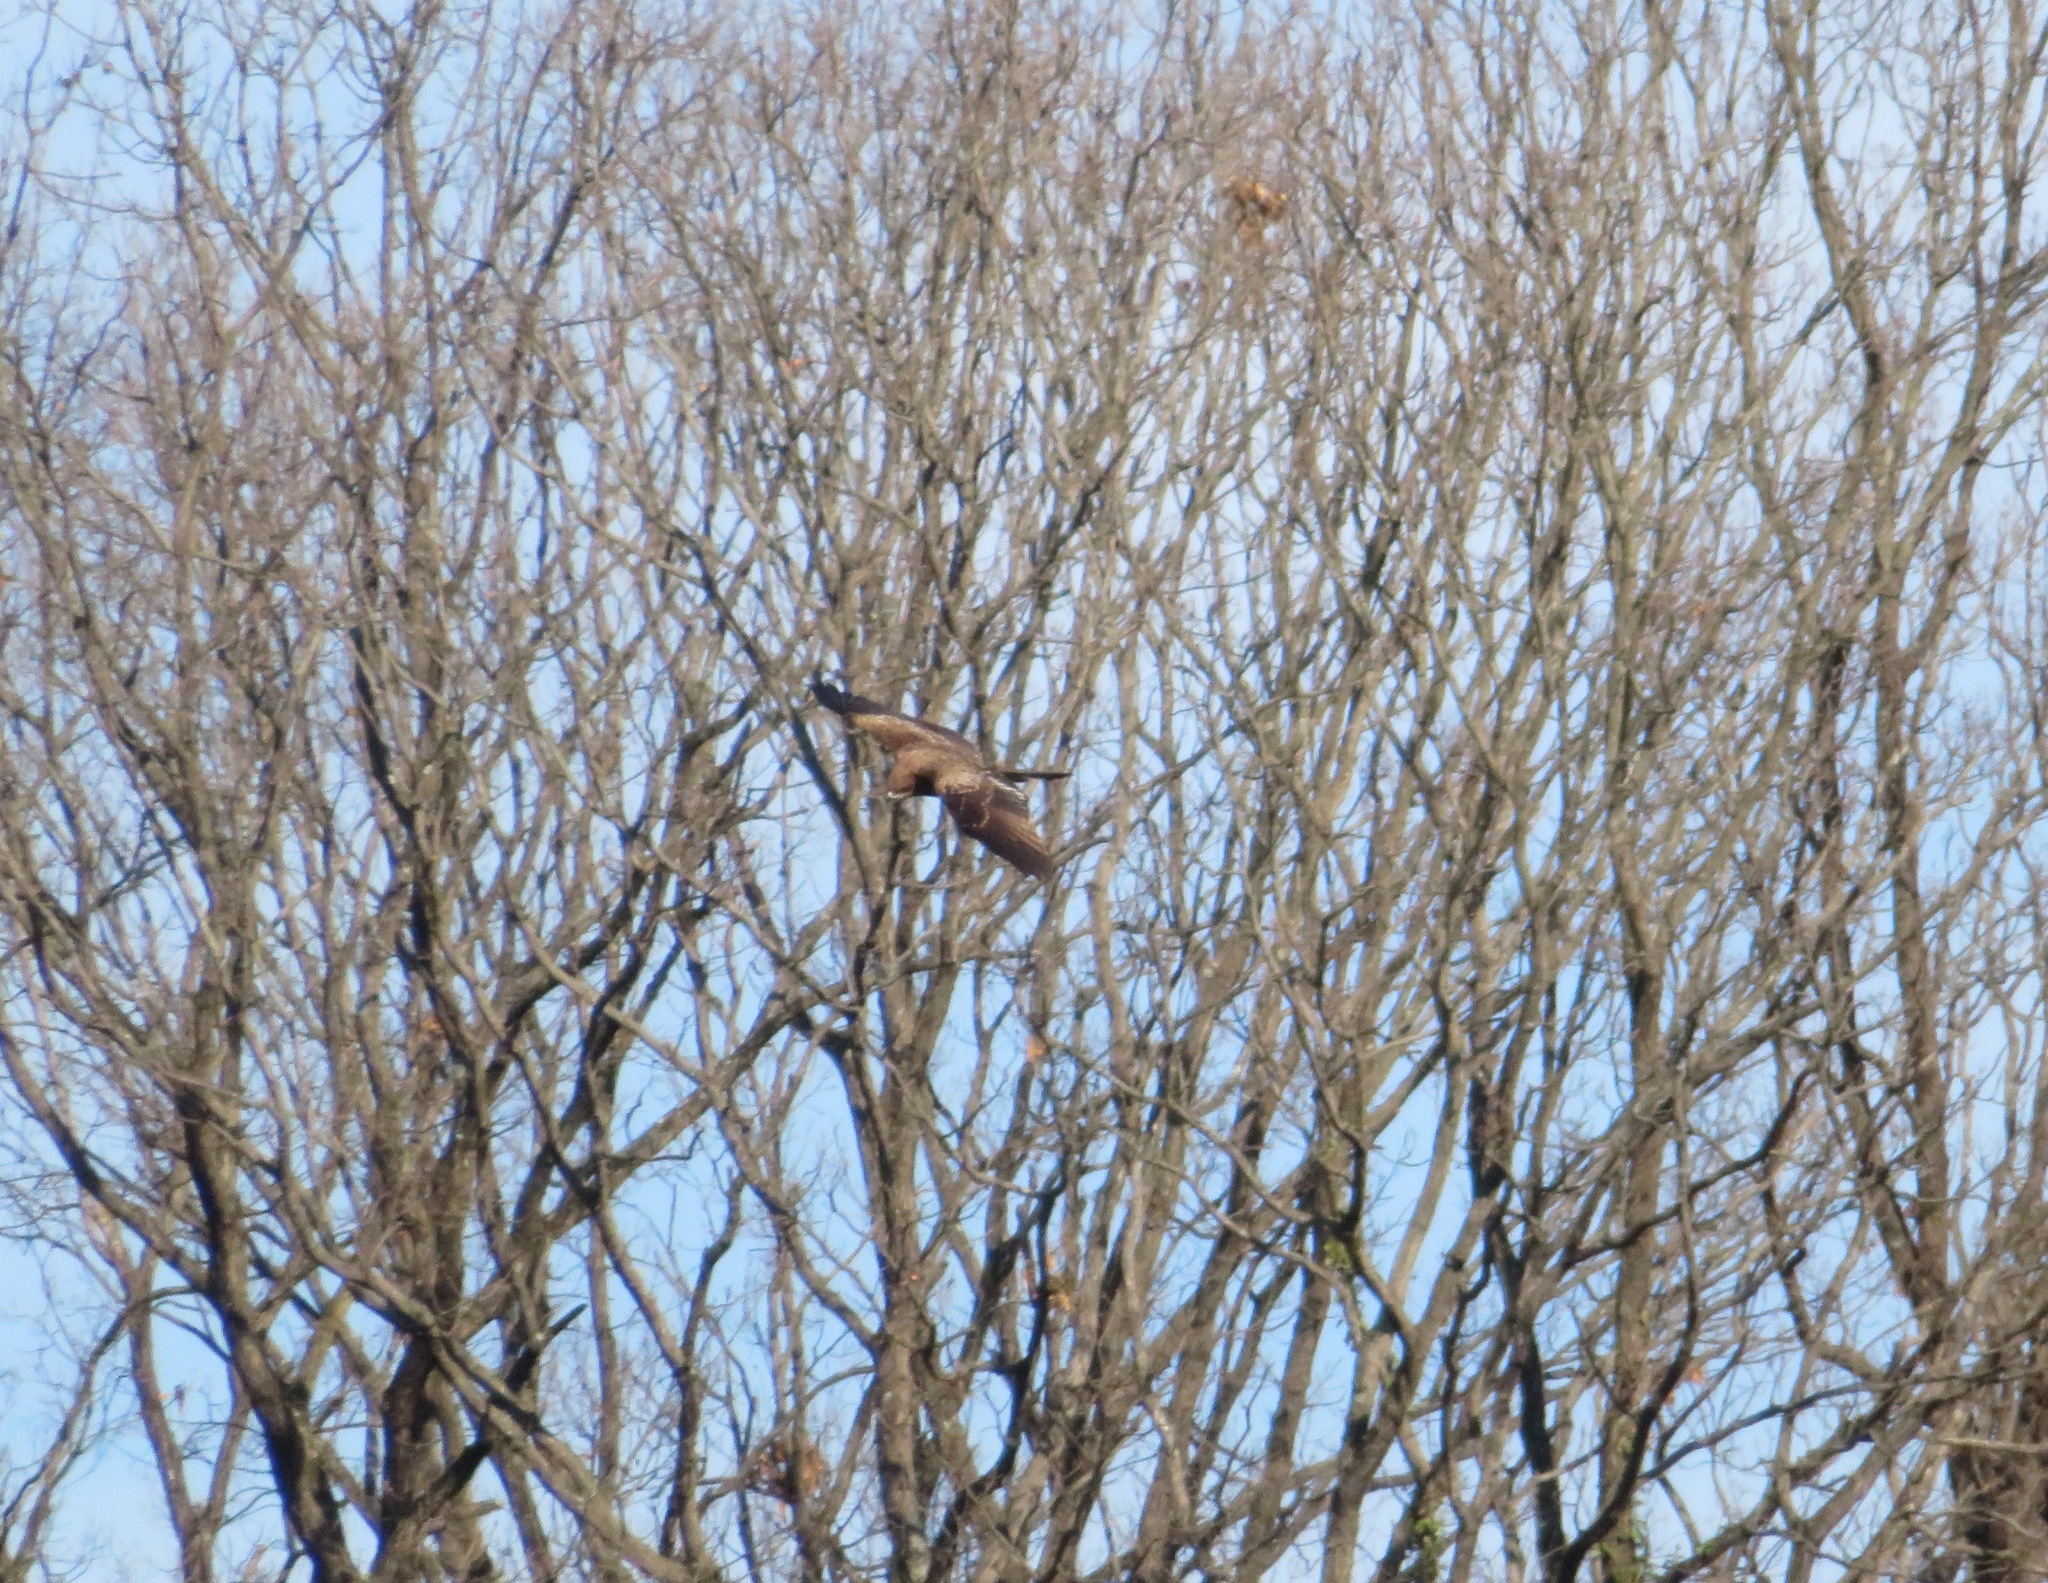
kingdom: Animalia
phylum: Chordata
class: Aves
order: Accipitriformes
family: Accipitridae
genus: Milvus
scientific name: Milvus migrans
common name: Black kite
